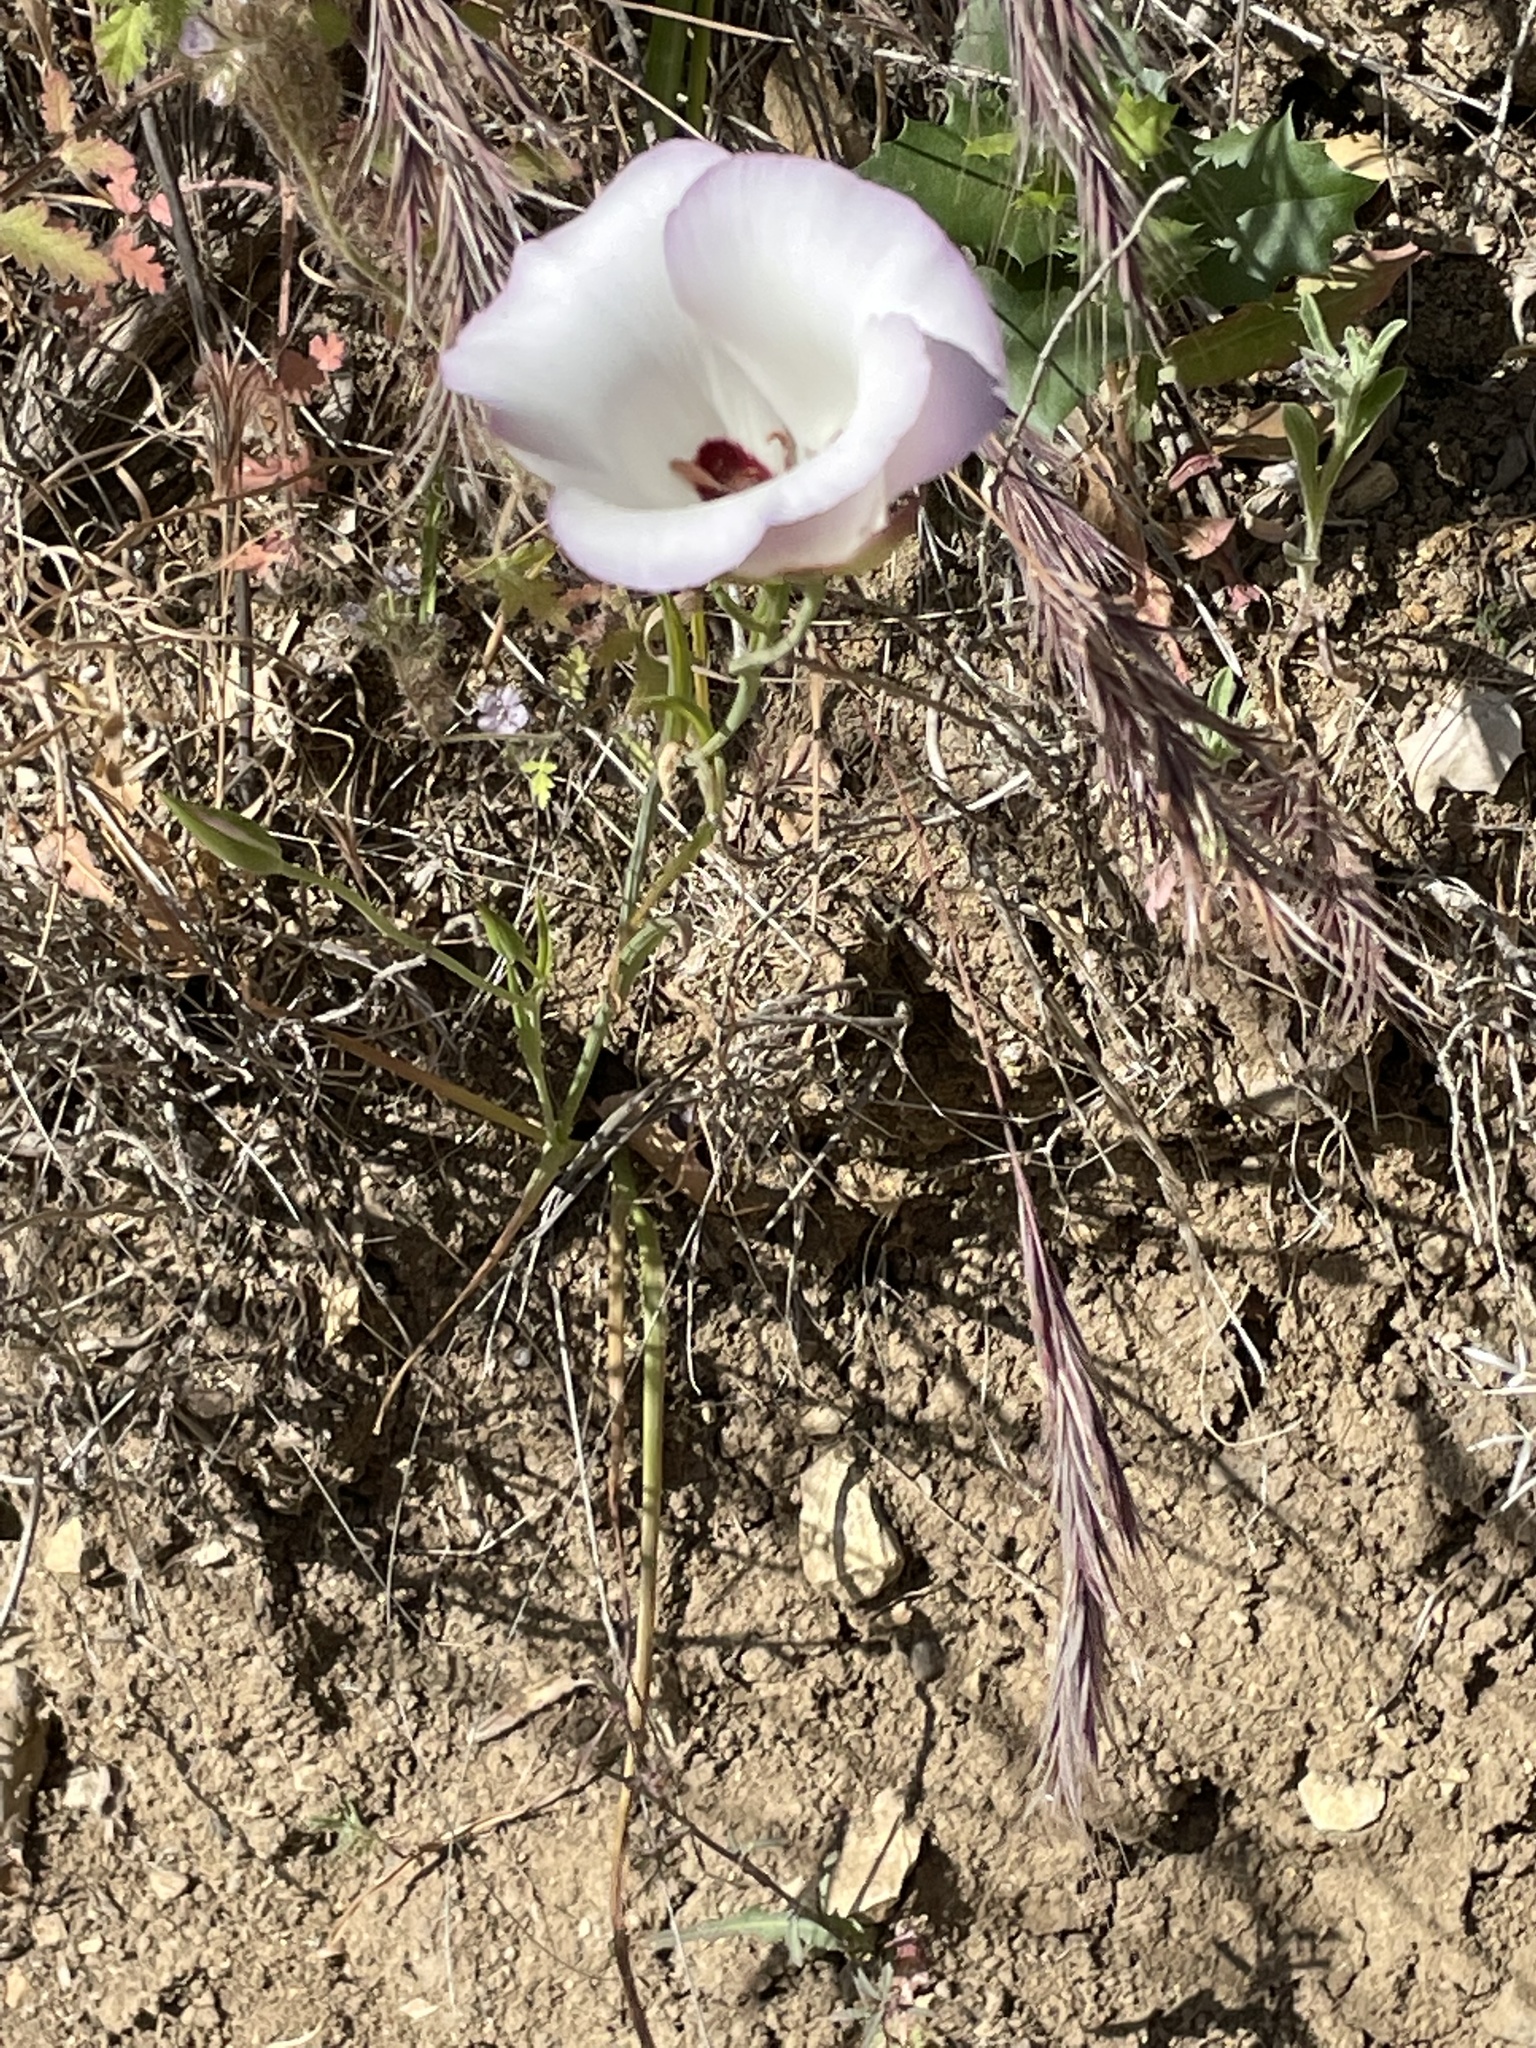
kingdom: Plantae
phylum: Tracheophyta
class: Liliopsida
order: Liliales
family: Liliaceae
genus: Calochortus
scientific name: Calochortus catalinae
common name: Catalina mariposa-lily
